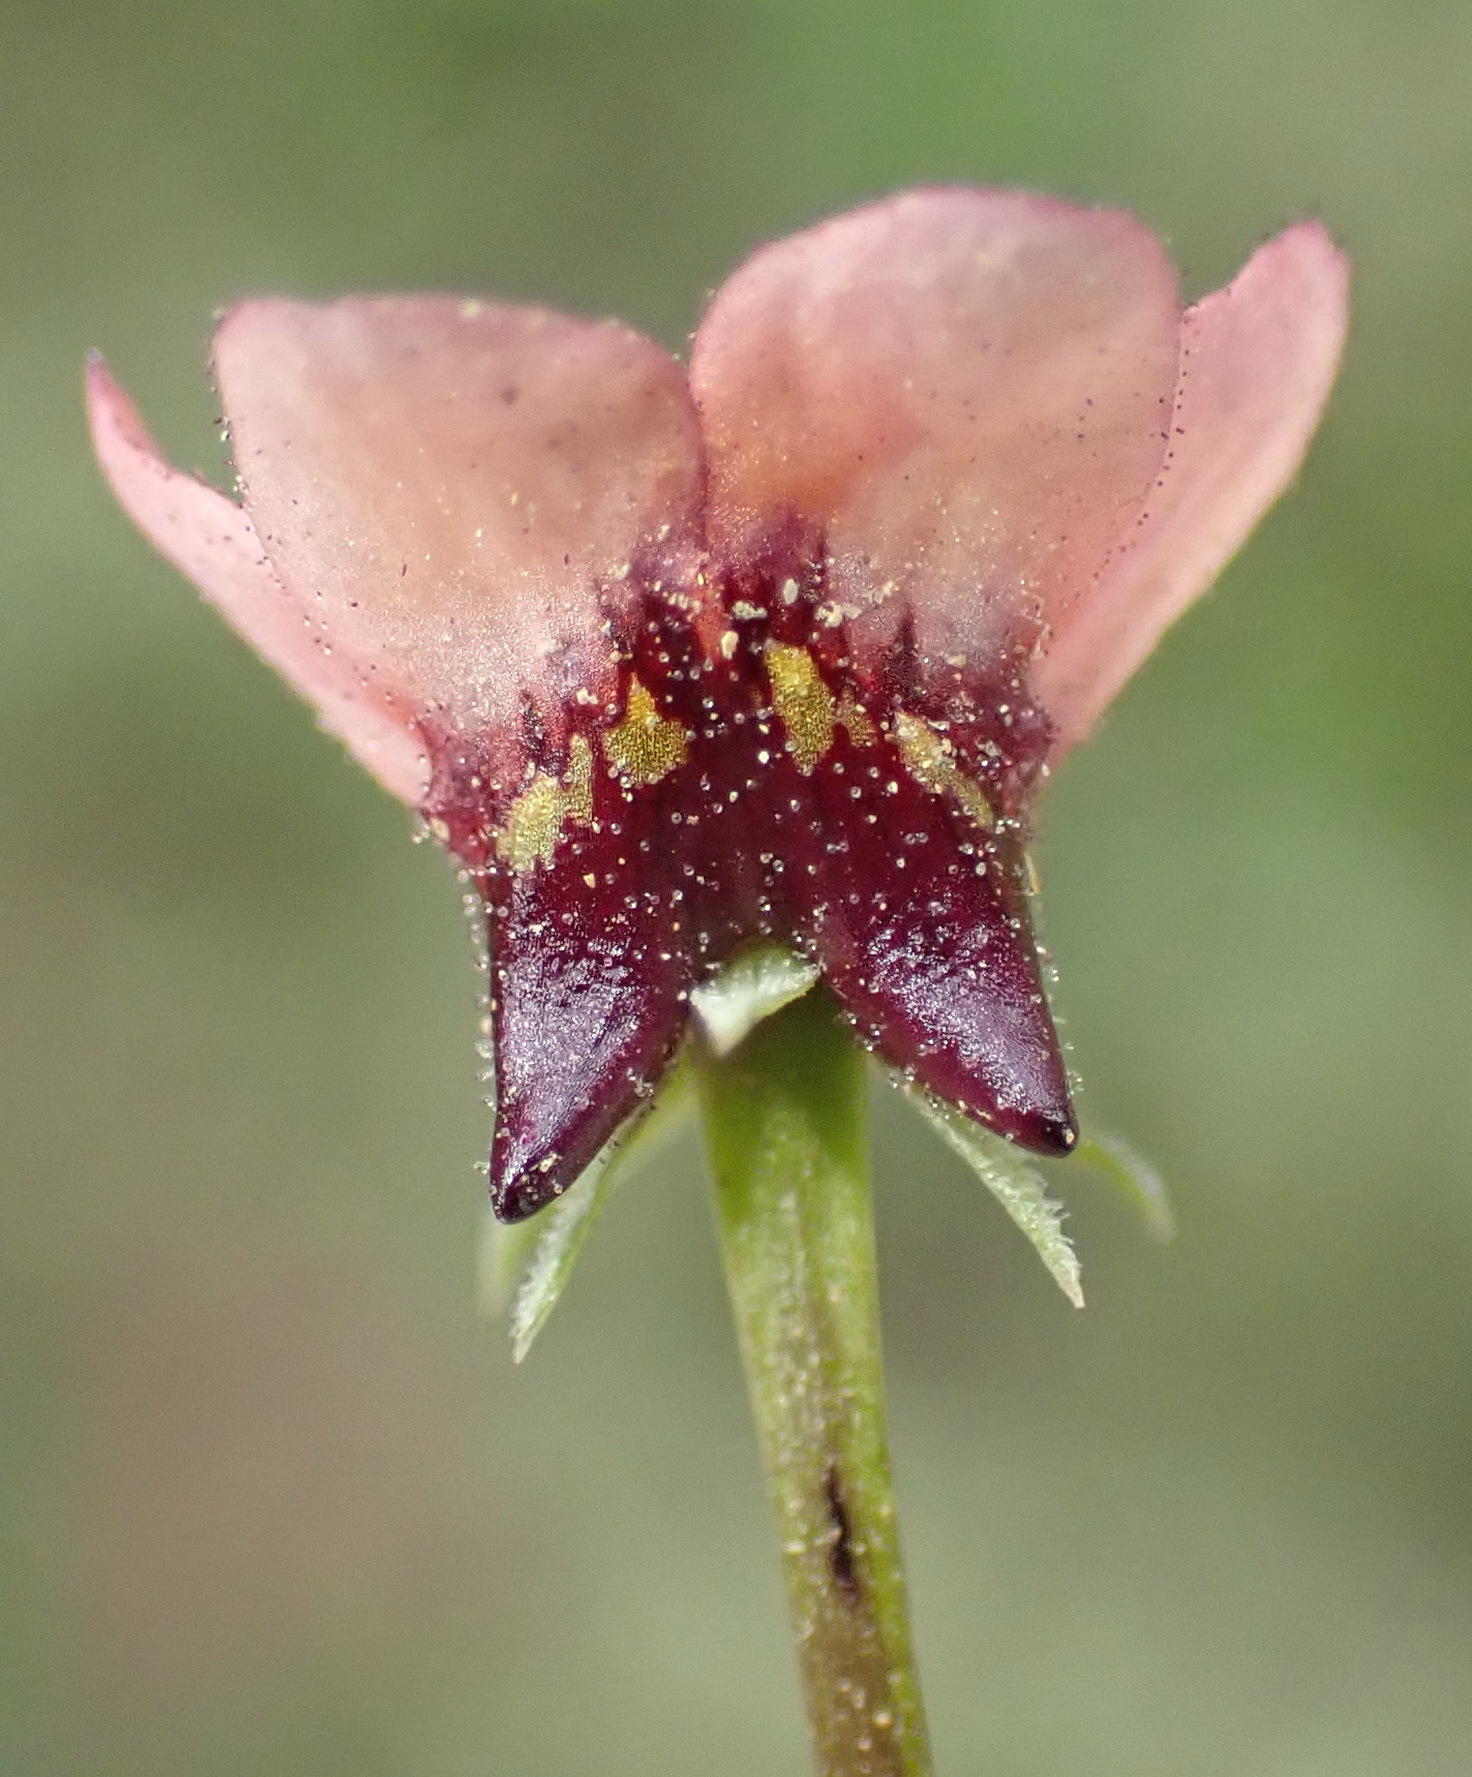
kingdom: Plantae
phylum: Tracheophyta
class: Magnoliopsida
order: Lamiales
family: Scrophulariaceae
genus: Diascia
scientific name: Diascia maculata
